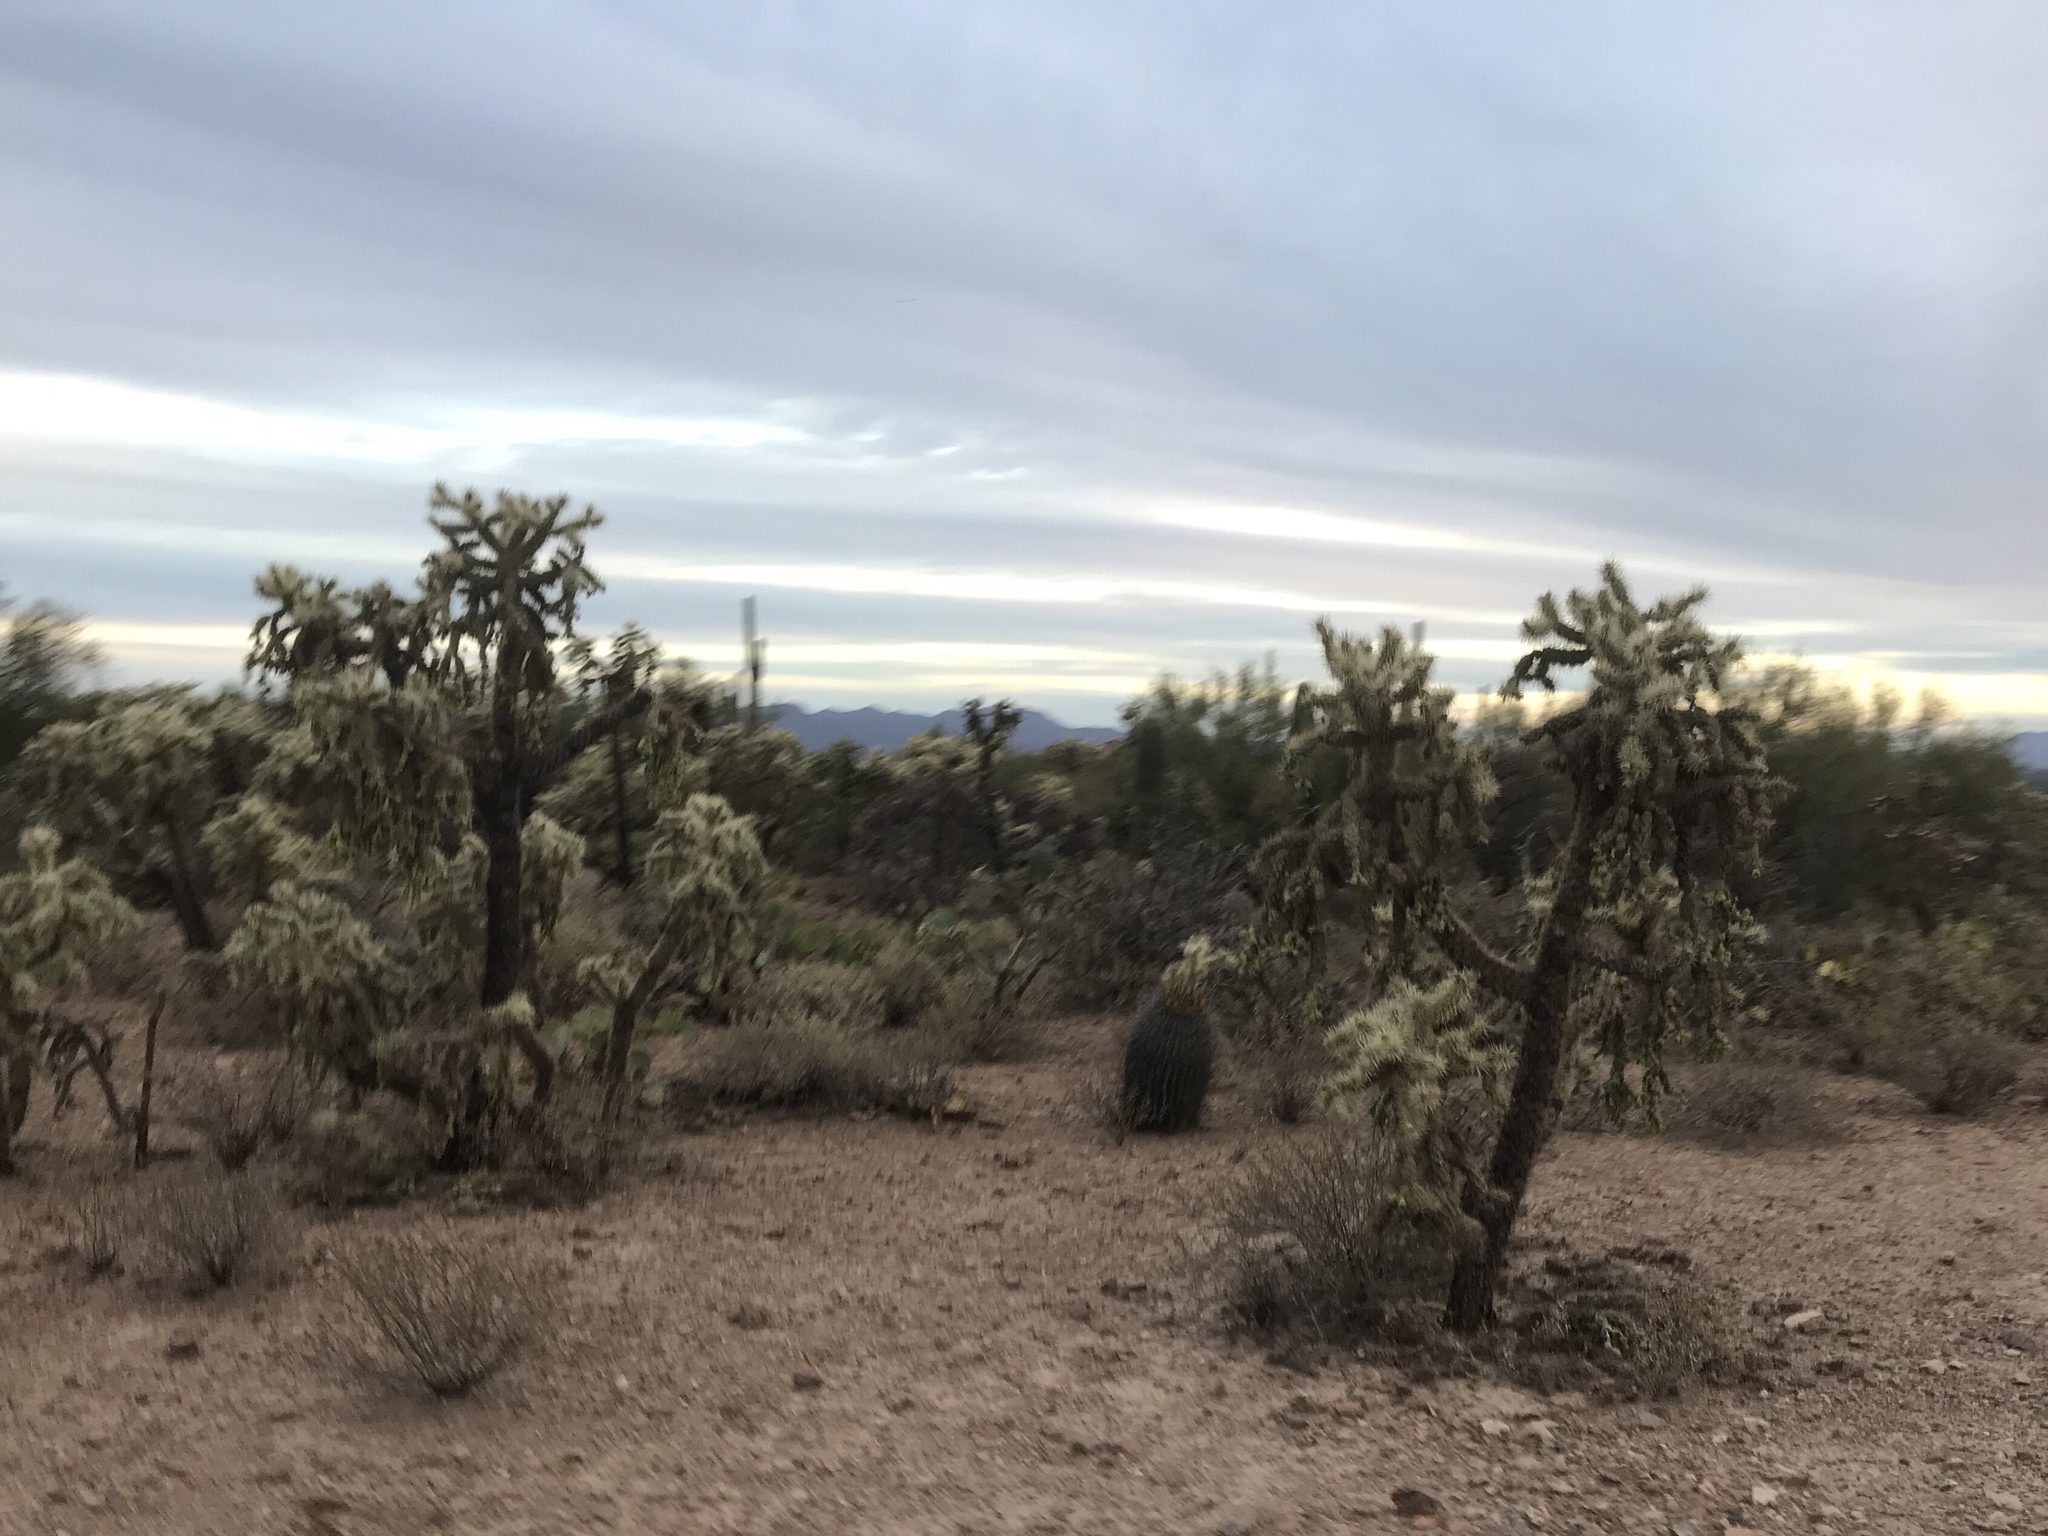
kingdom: Plantae
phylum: Tracheophyta
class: Magnoliopsida
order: Caryophyllales
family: Cactaceae
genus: Cylindropuntia
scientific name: Cylindropuntia fulgida
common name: Jumping cholla
